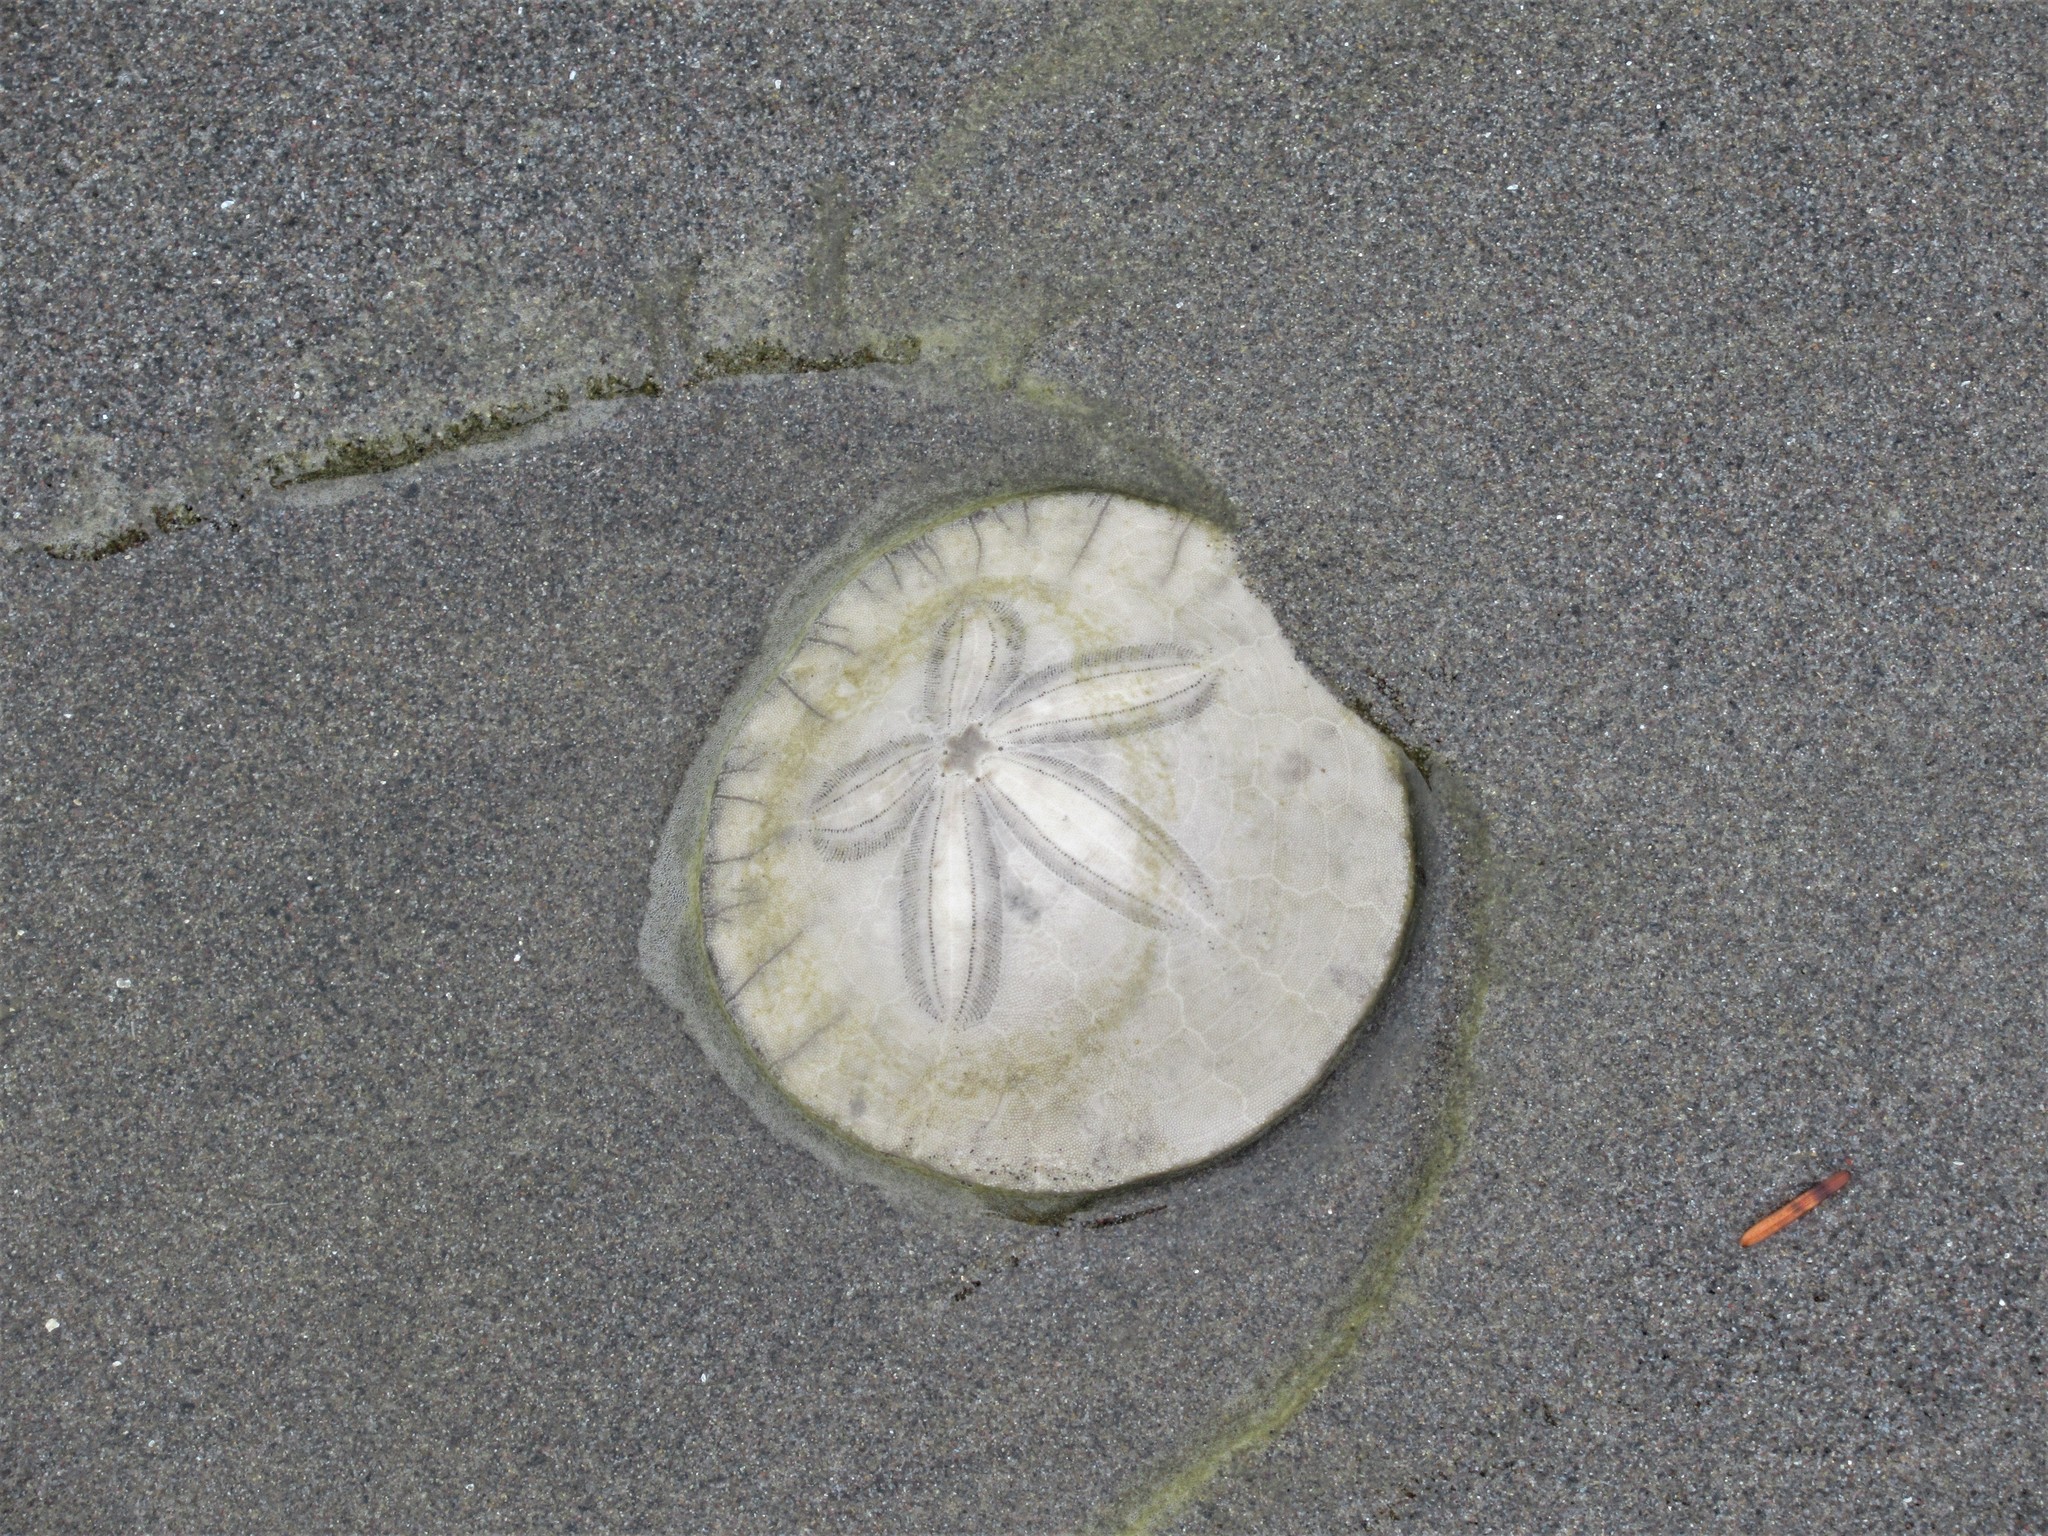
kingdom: Animalia
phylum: Echinodermata
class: Echinoidea
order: Echinolampadacea
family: Dendrasteridae
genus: Dendraster
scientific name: Dendraster excentricus
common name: Eccentric sand dollar sea urchin
